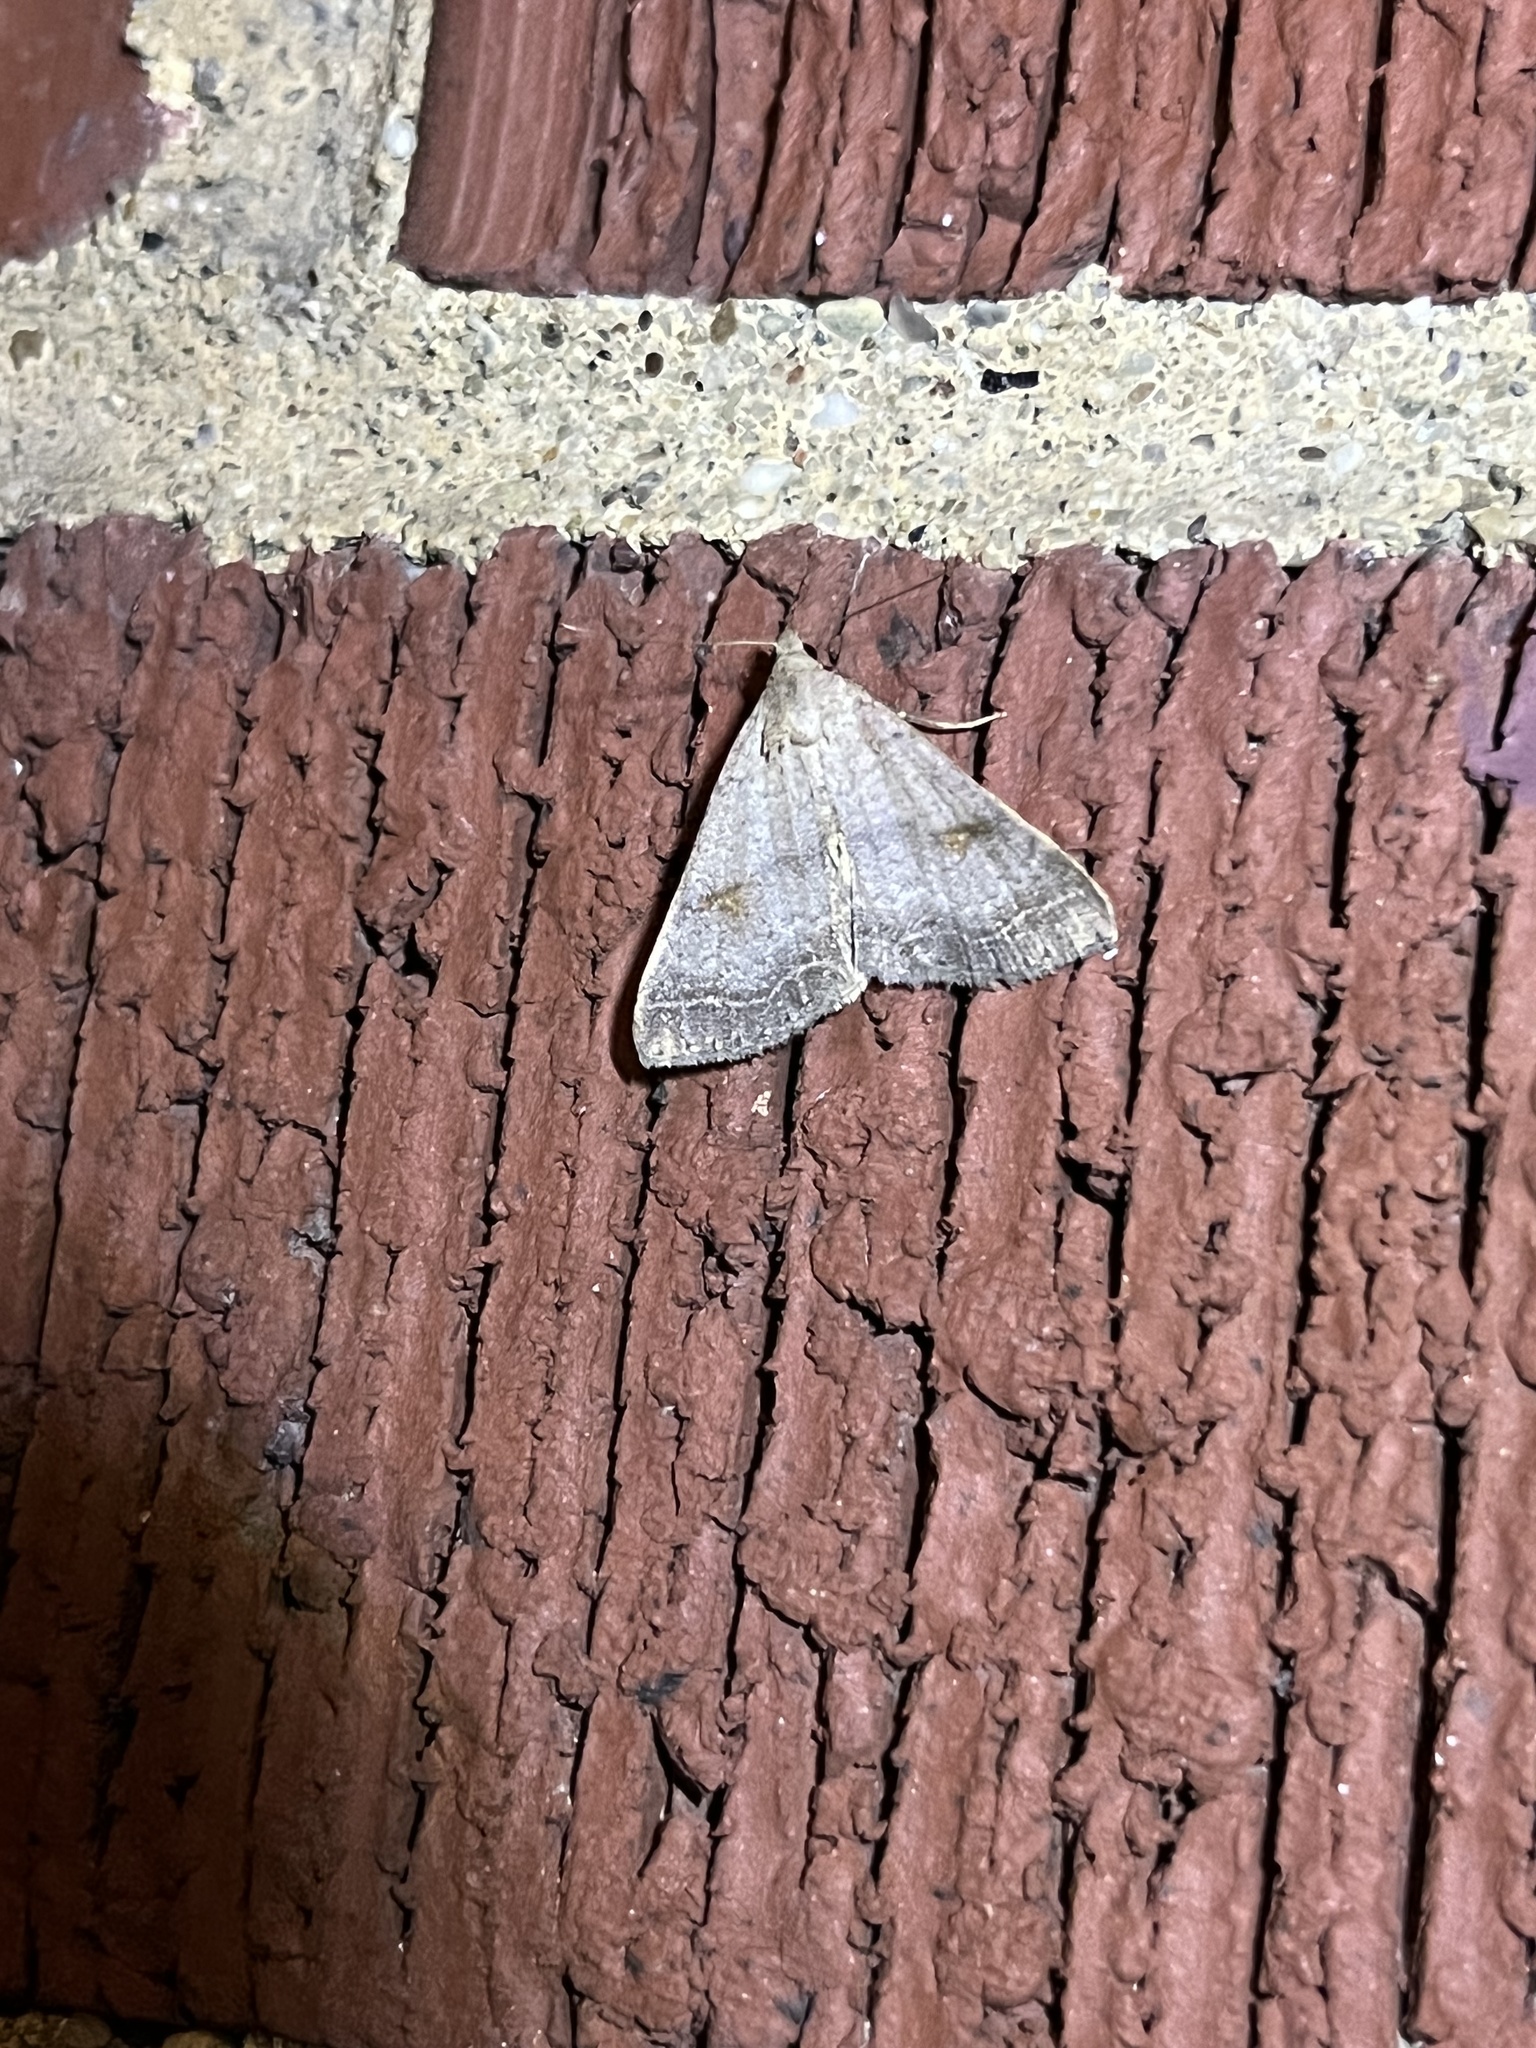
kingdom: Animalia
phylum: Arthropoda
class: Insecta
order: Lepidoptera
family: Erebidae
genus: Bleptina
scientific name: Bleptina caradrinalis
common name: Bent-winged owlet
